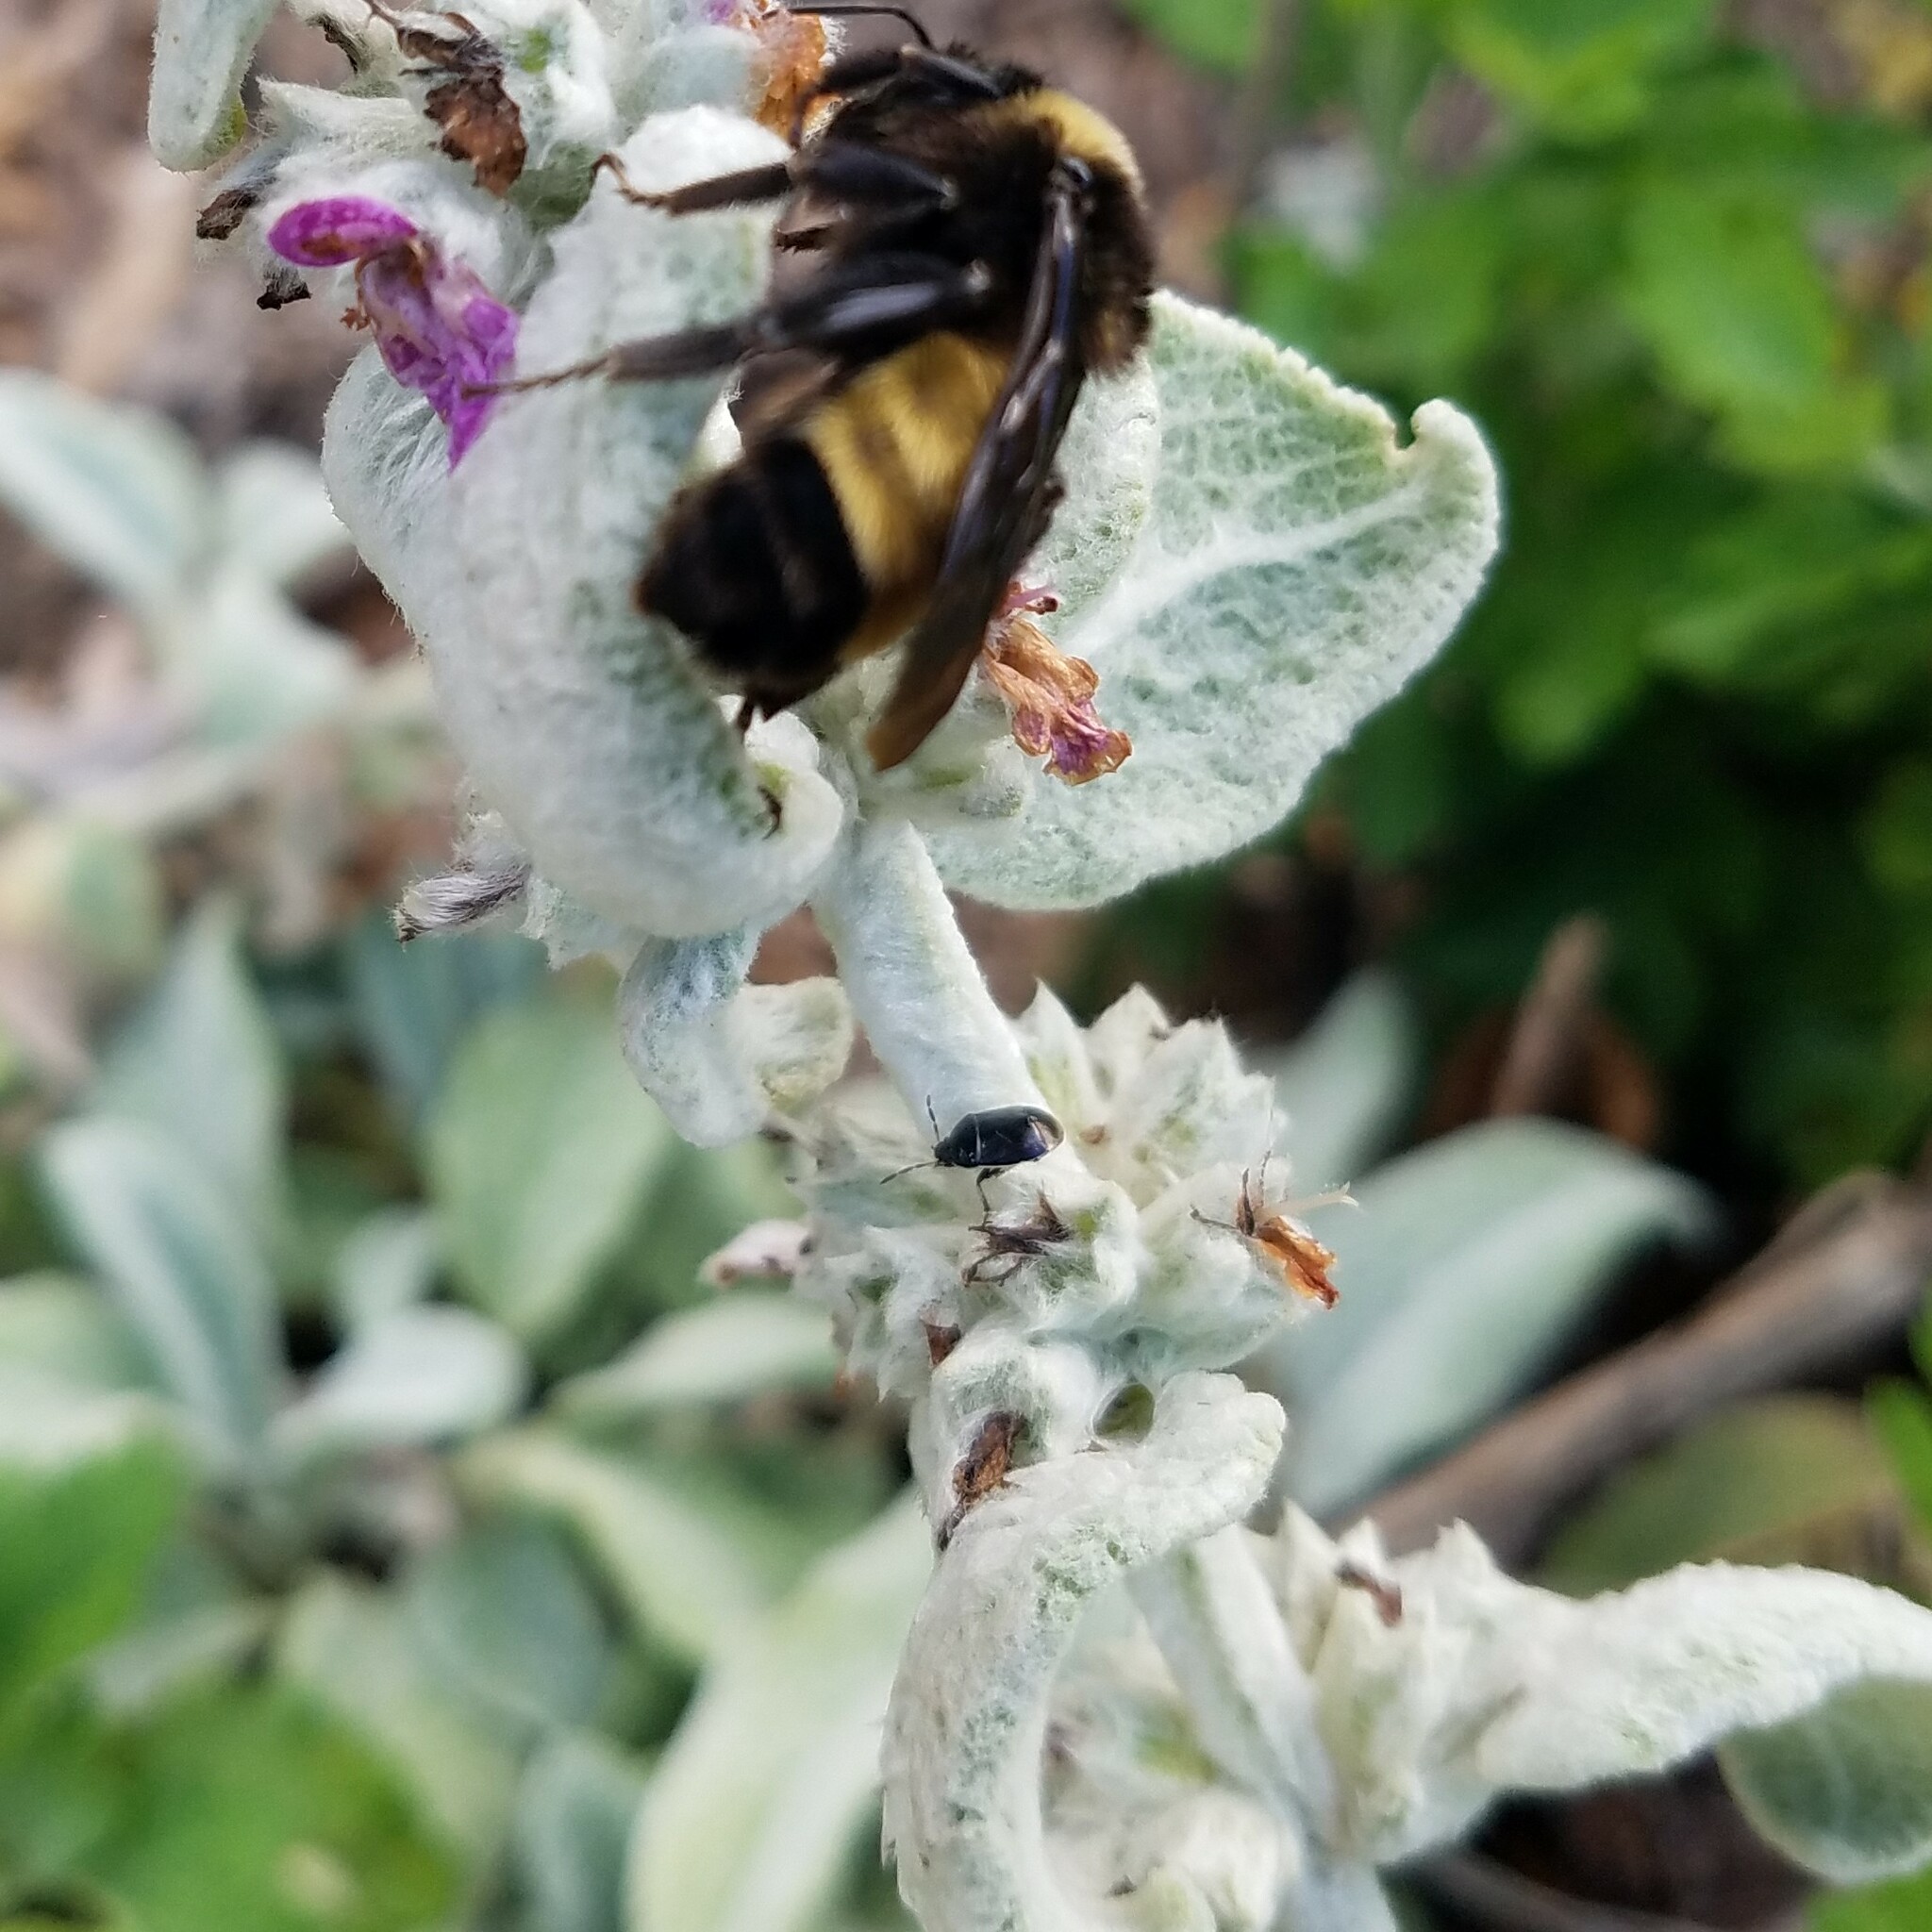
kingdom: Animalia
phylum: Arthropoda
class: Insecta
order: Hemiptera
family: Cydnidae
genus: Sehirus
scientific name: Sehirus cinctus
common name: White-margined burrower bug
